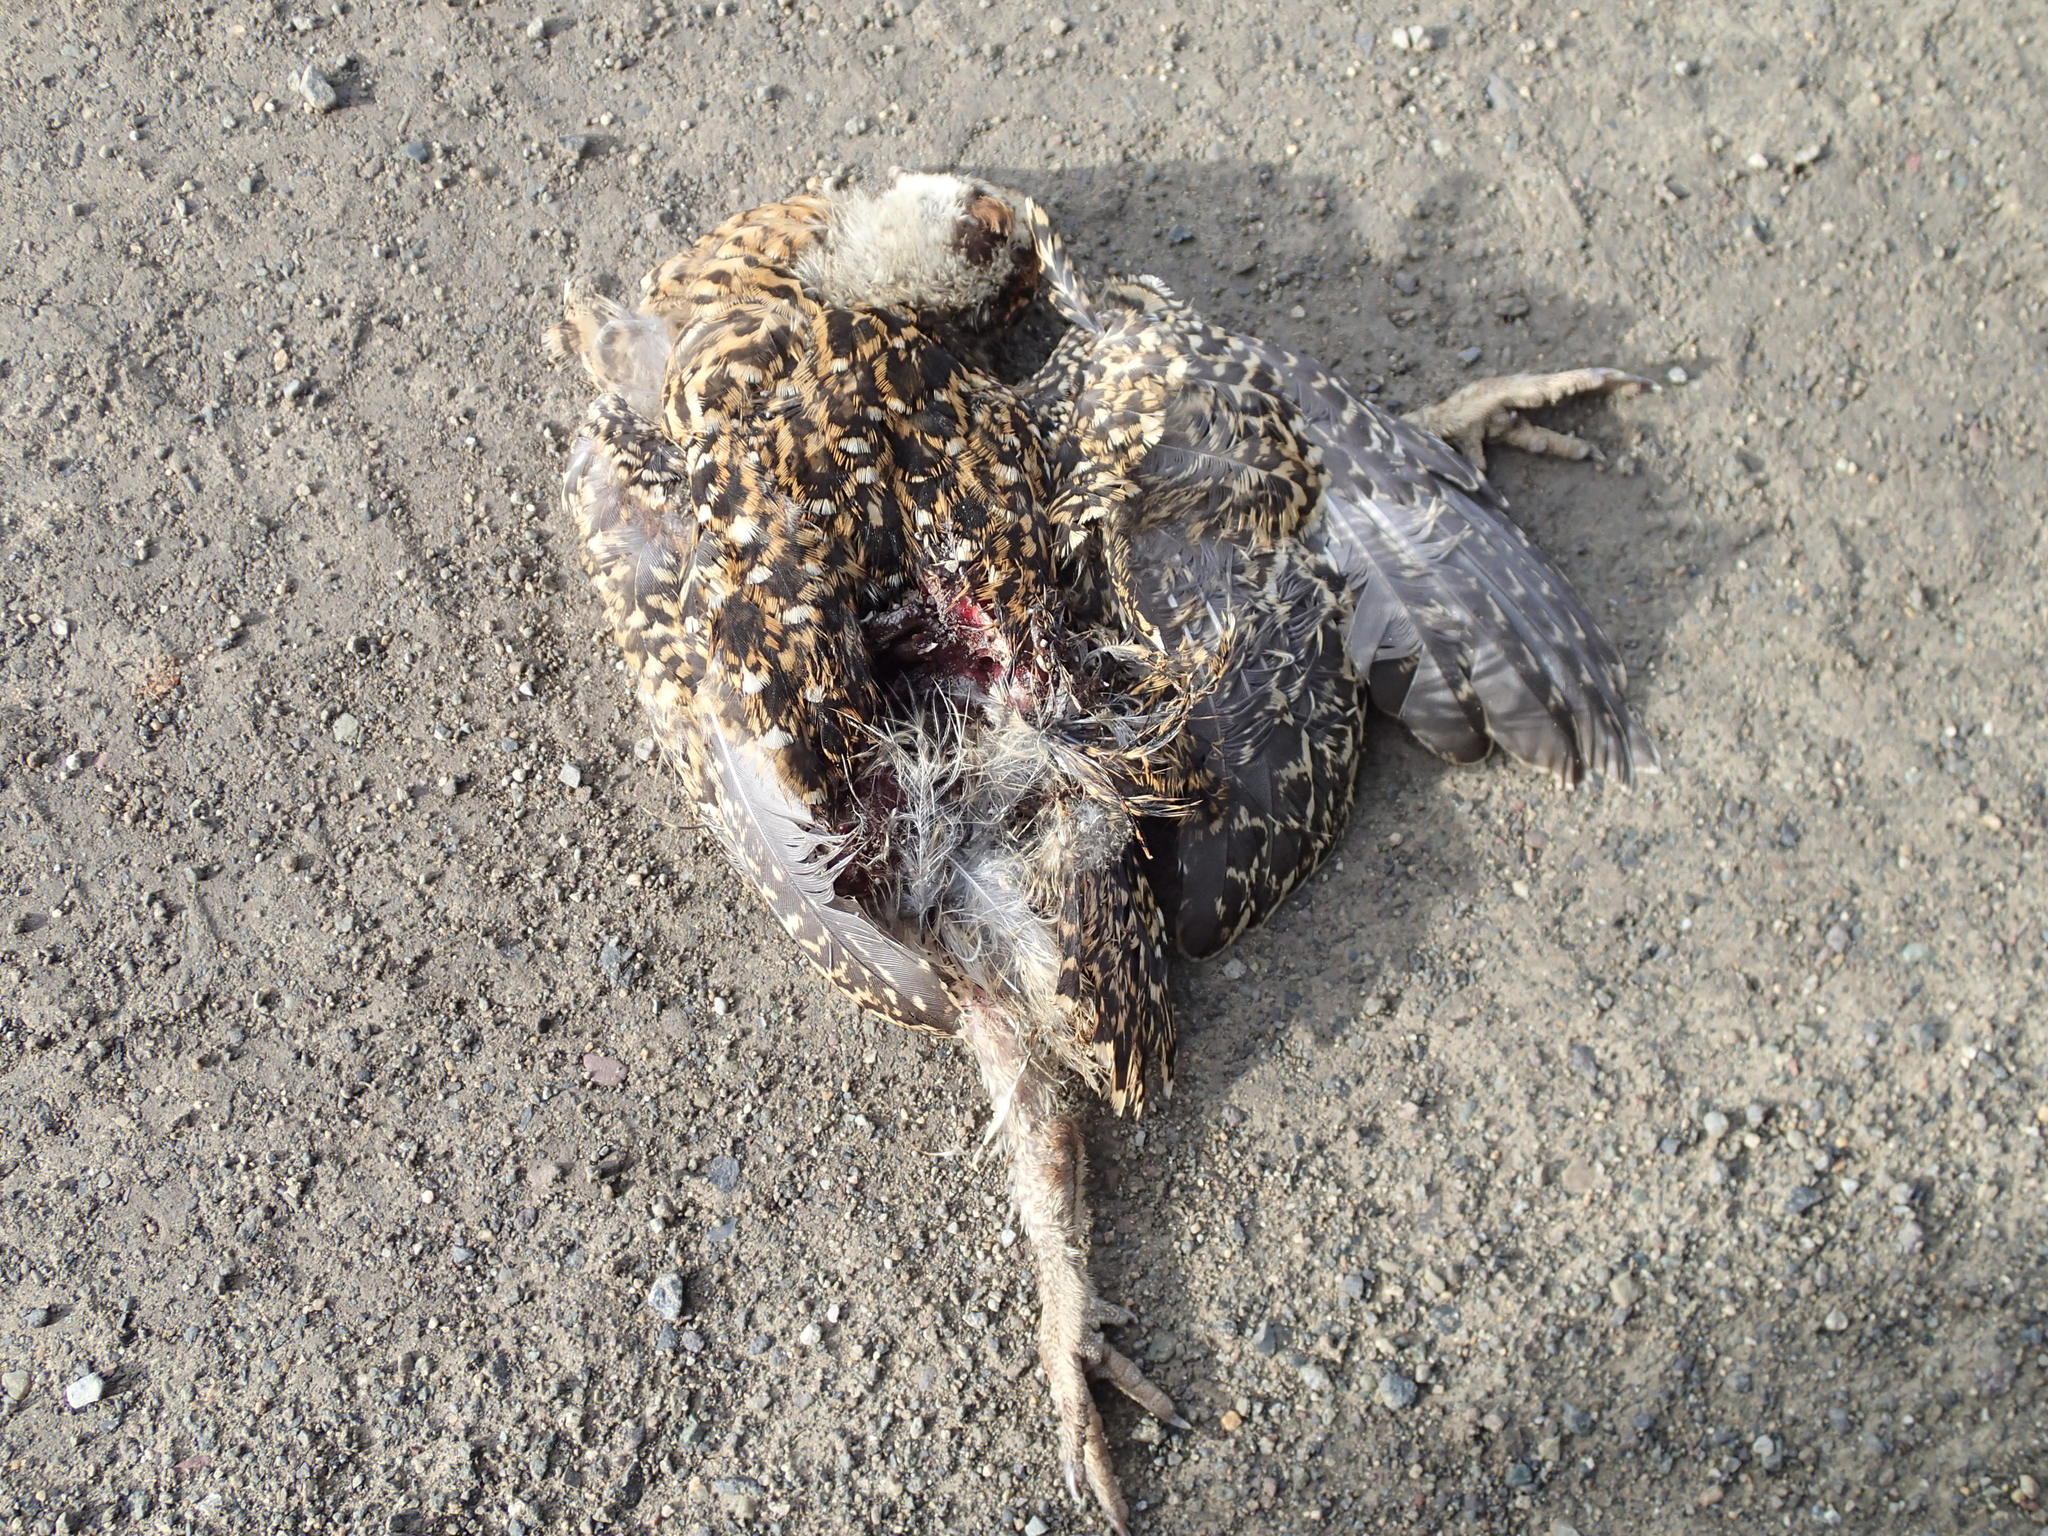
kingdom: Animalia
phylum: Chordata
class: Aves
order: Galliformes
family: Phasianidae
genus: Tympanuchus
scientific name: Tympanuchus phasianellus
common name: Sharp-tailed grouse
